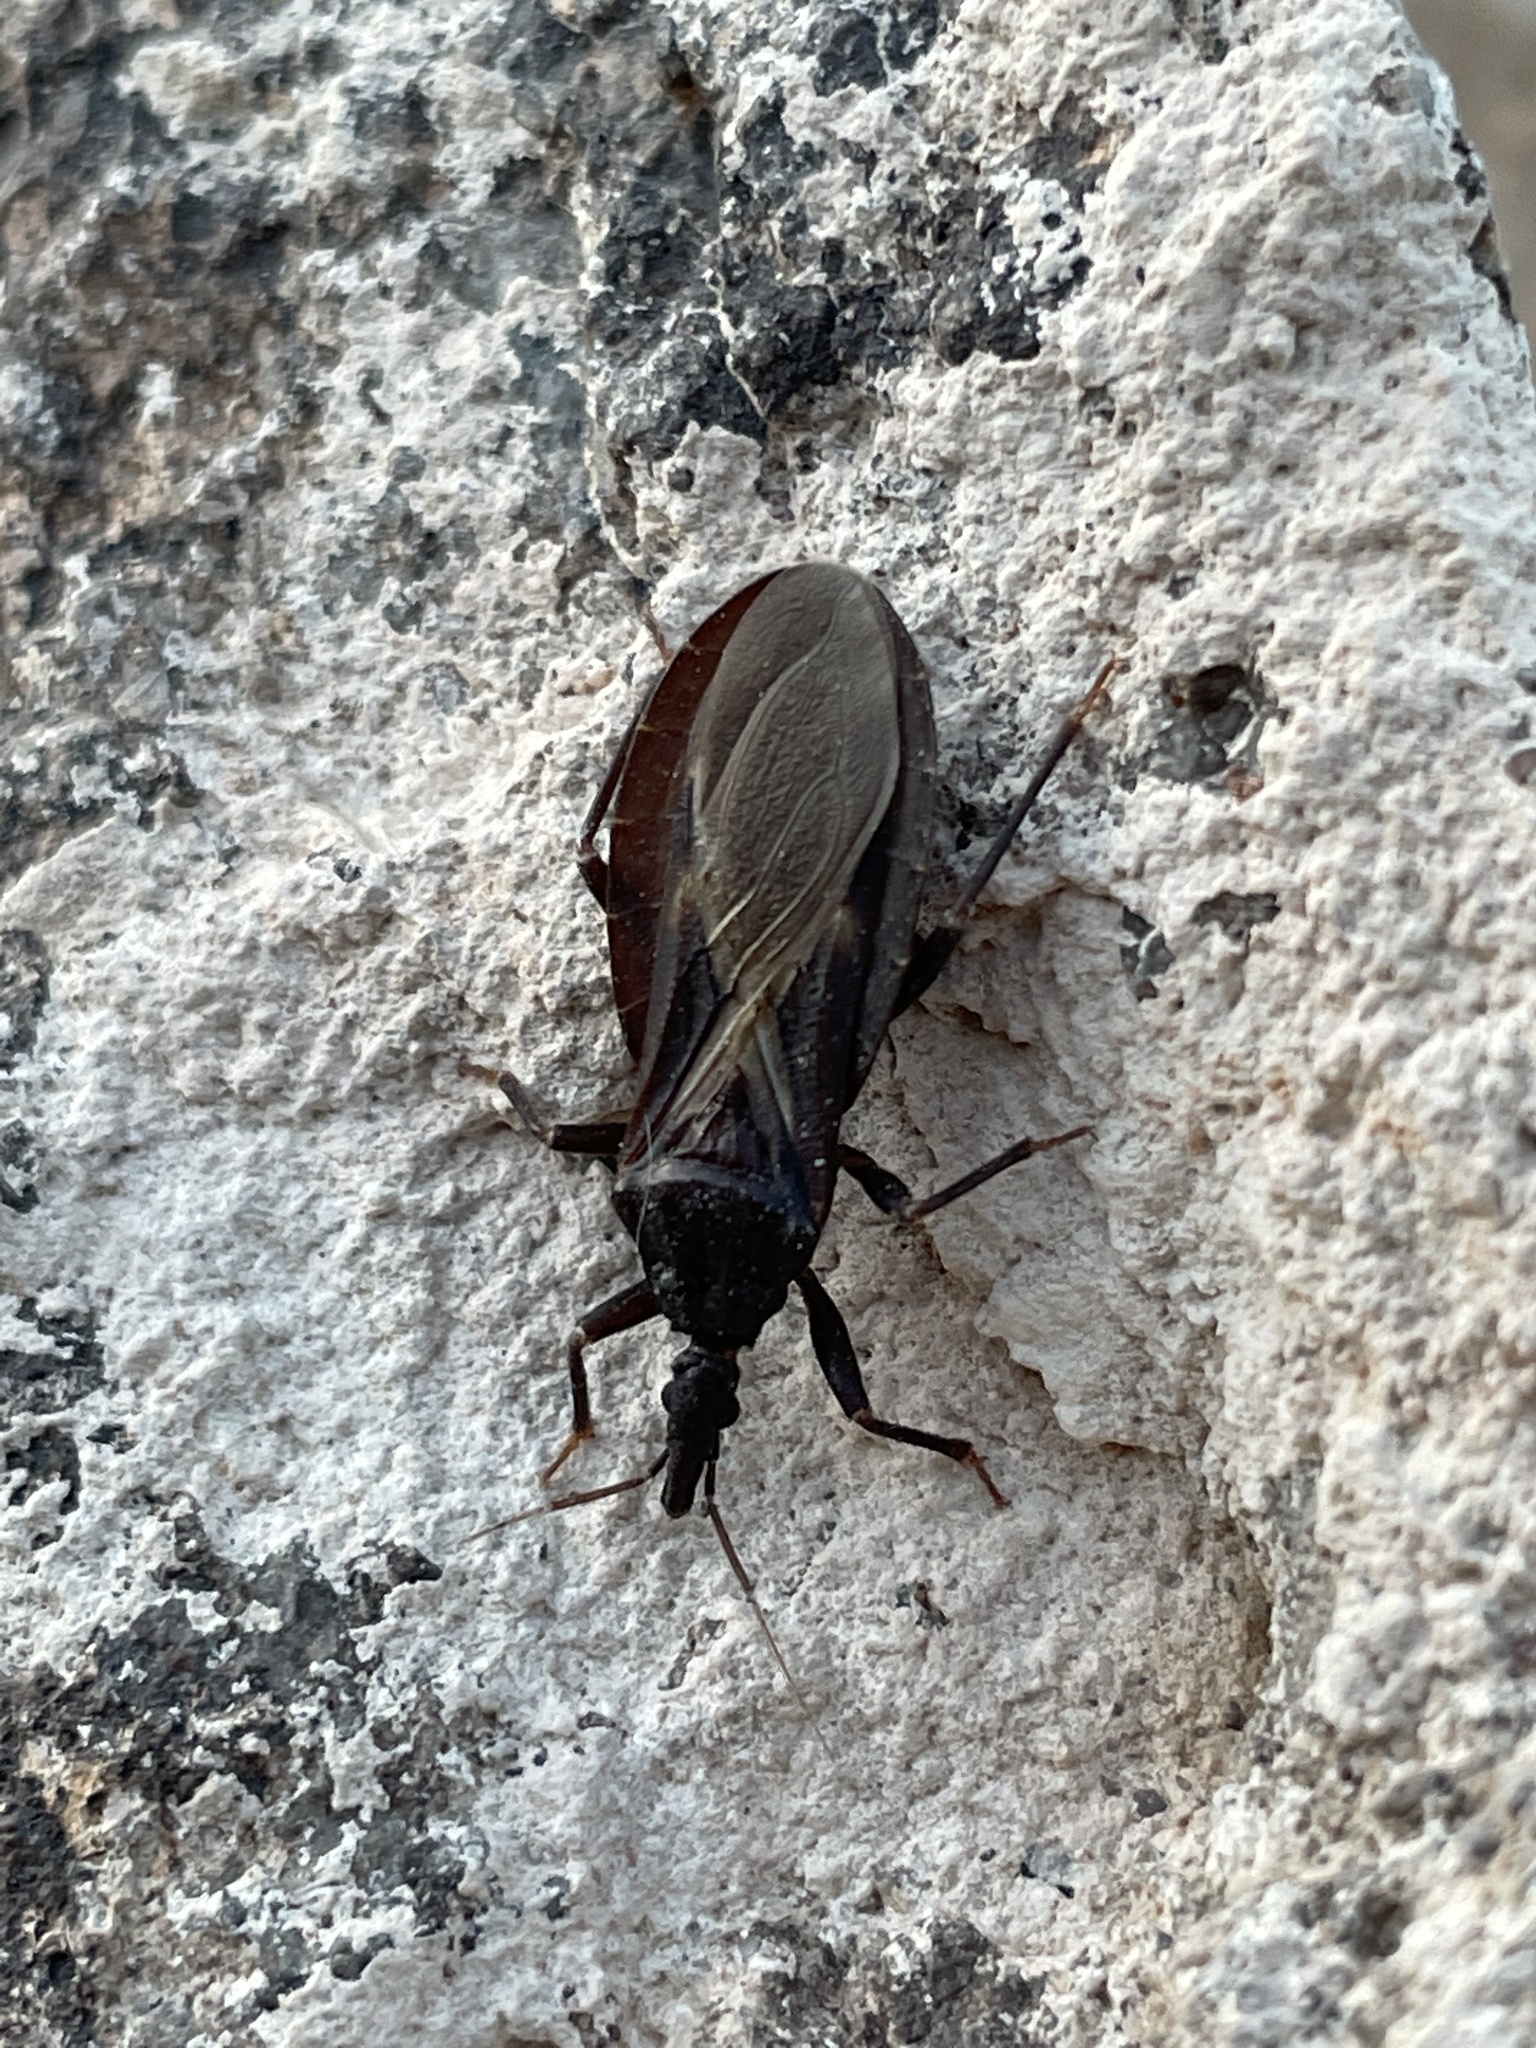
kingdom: Animalia
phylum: Arthropoda
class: Insecta
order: Hemiptera
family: Reduviidae
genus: Triatoma
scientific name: Triatoma protracta
